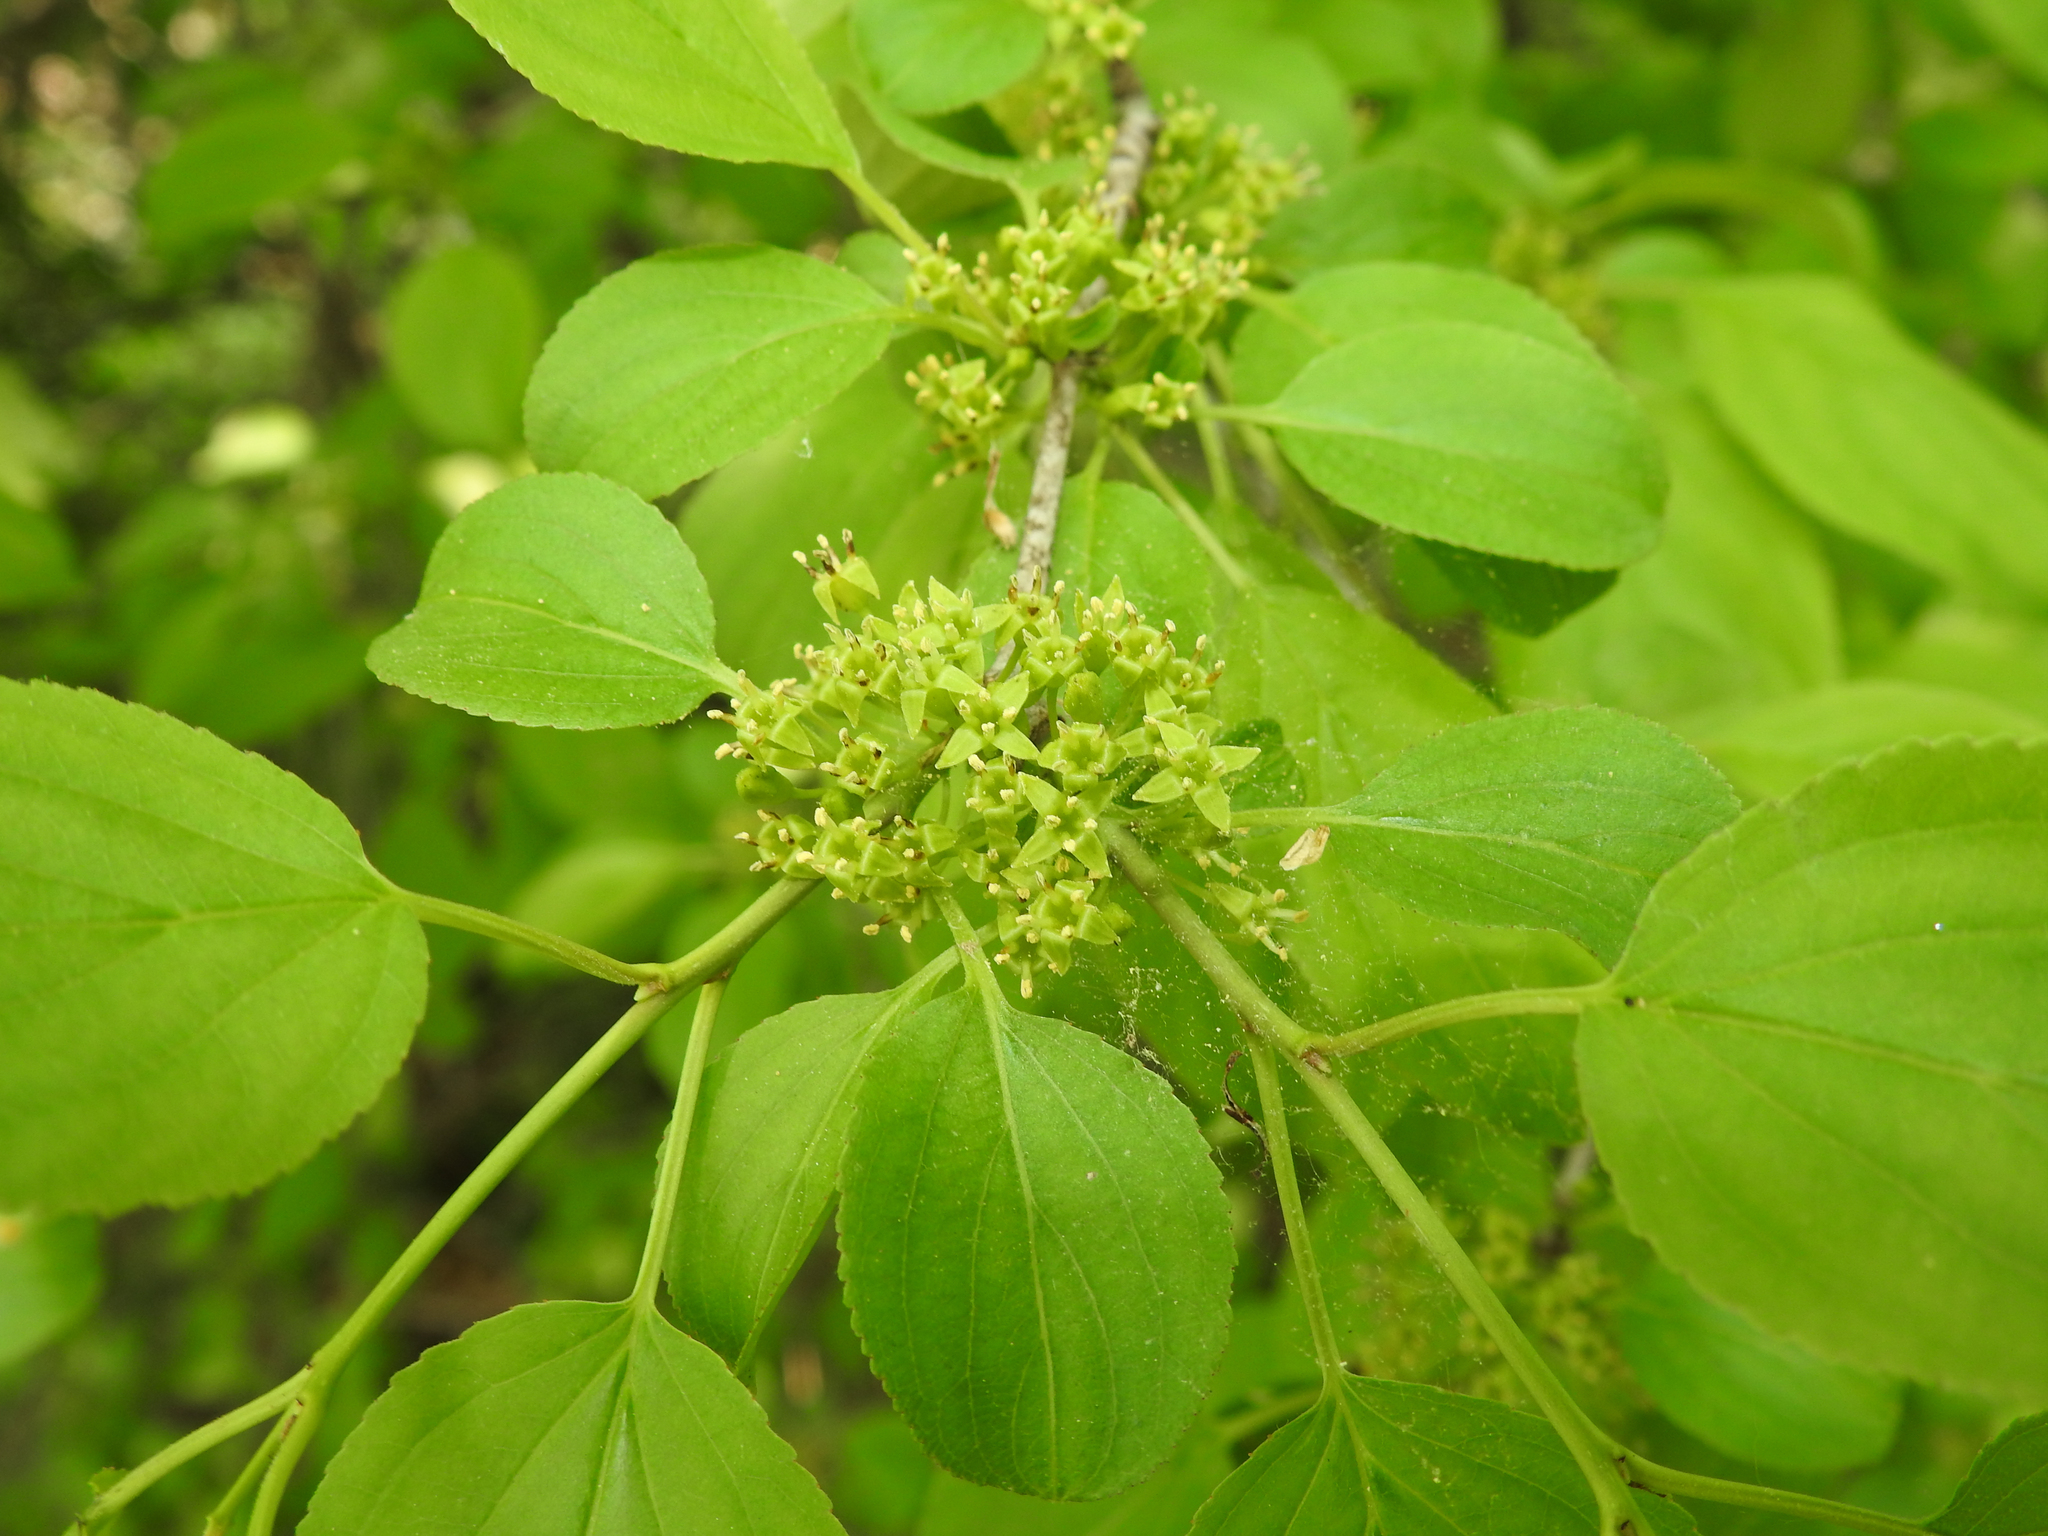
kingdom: Plantae
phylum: Tracheophyta
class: Magnoliopsida
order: Rosales
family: Rhamnaceae
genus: Rhamnus
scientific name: Rhamnus cathartica
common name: Common buckthorn
